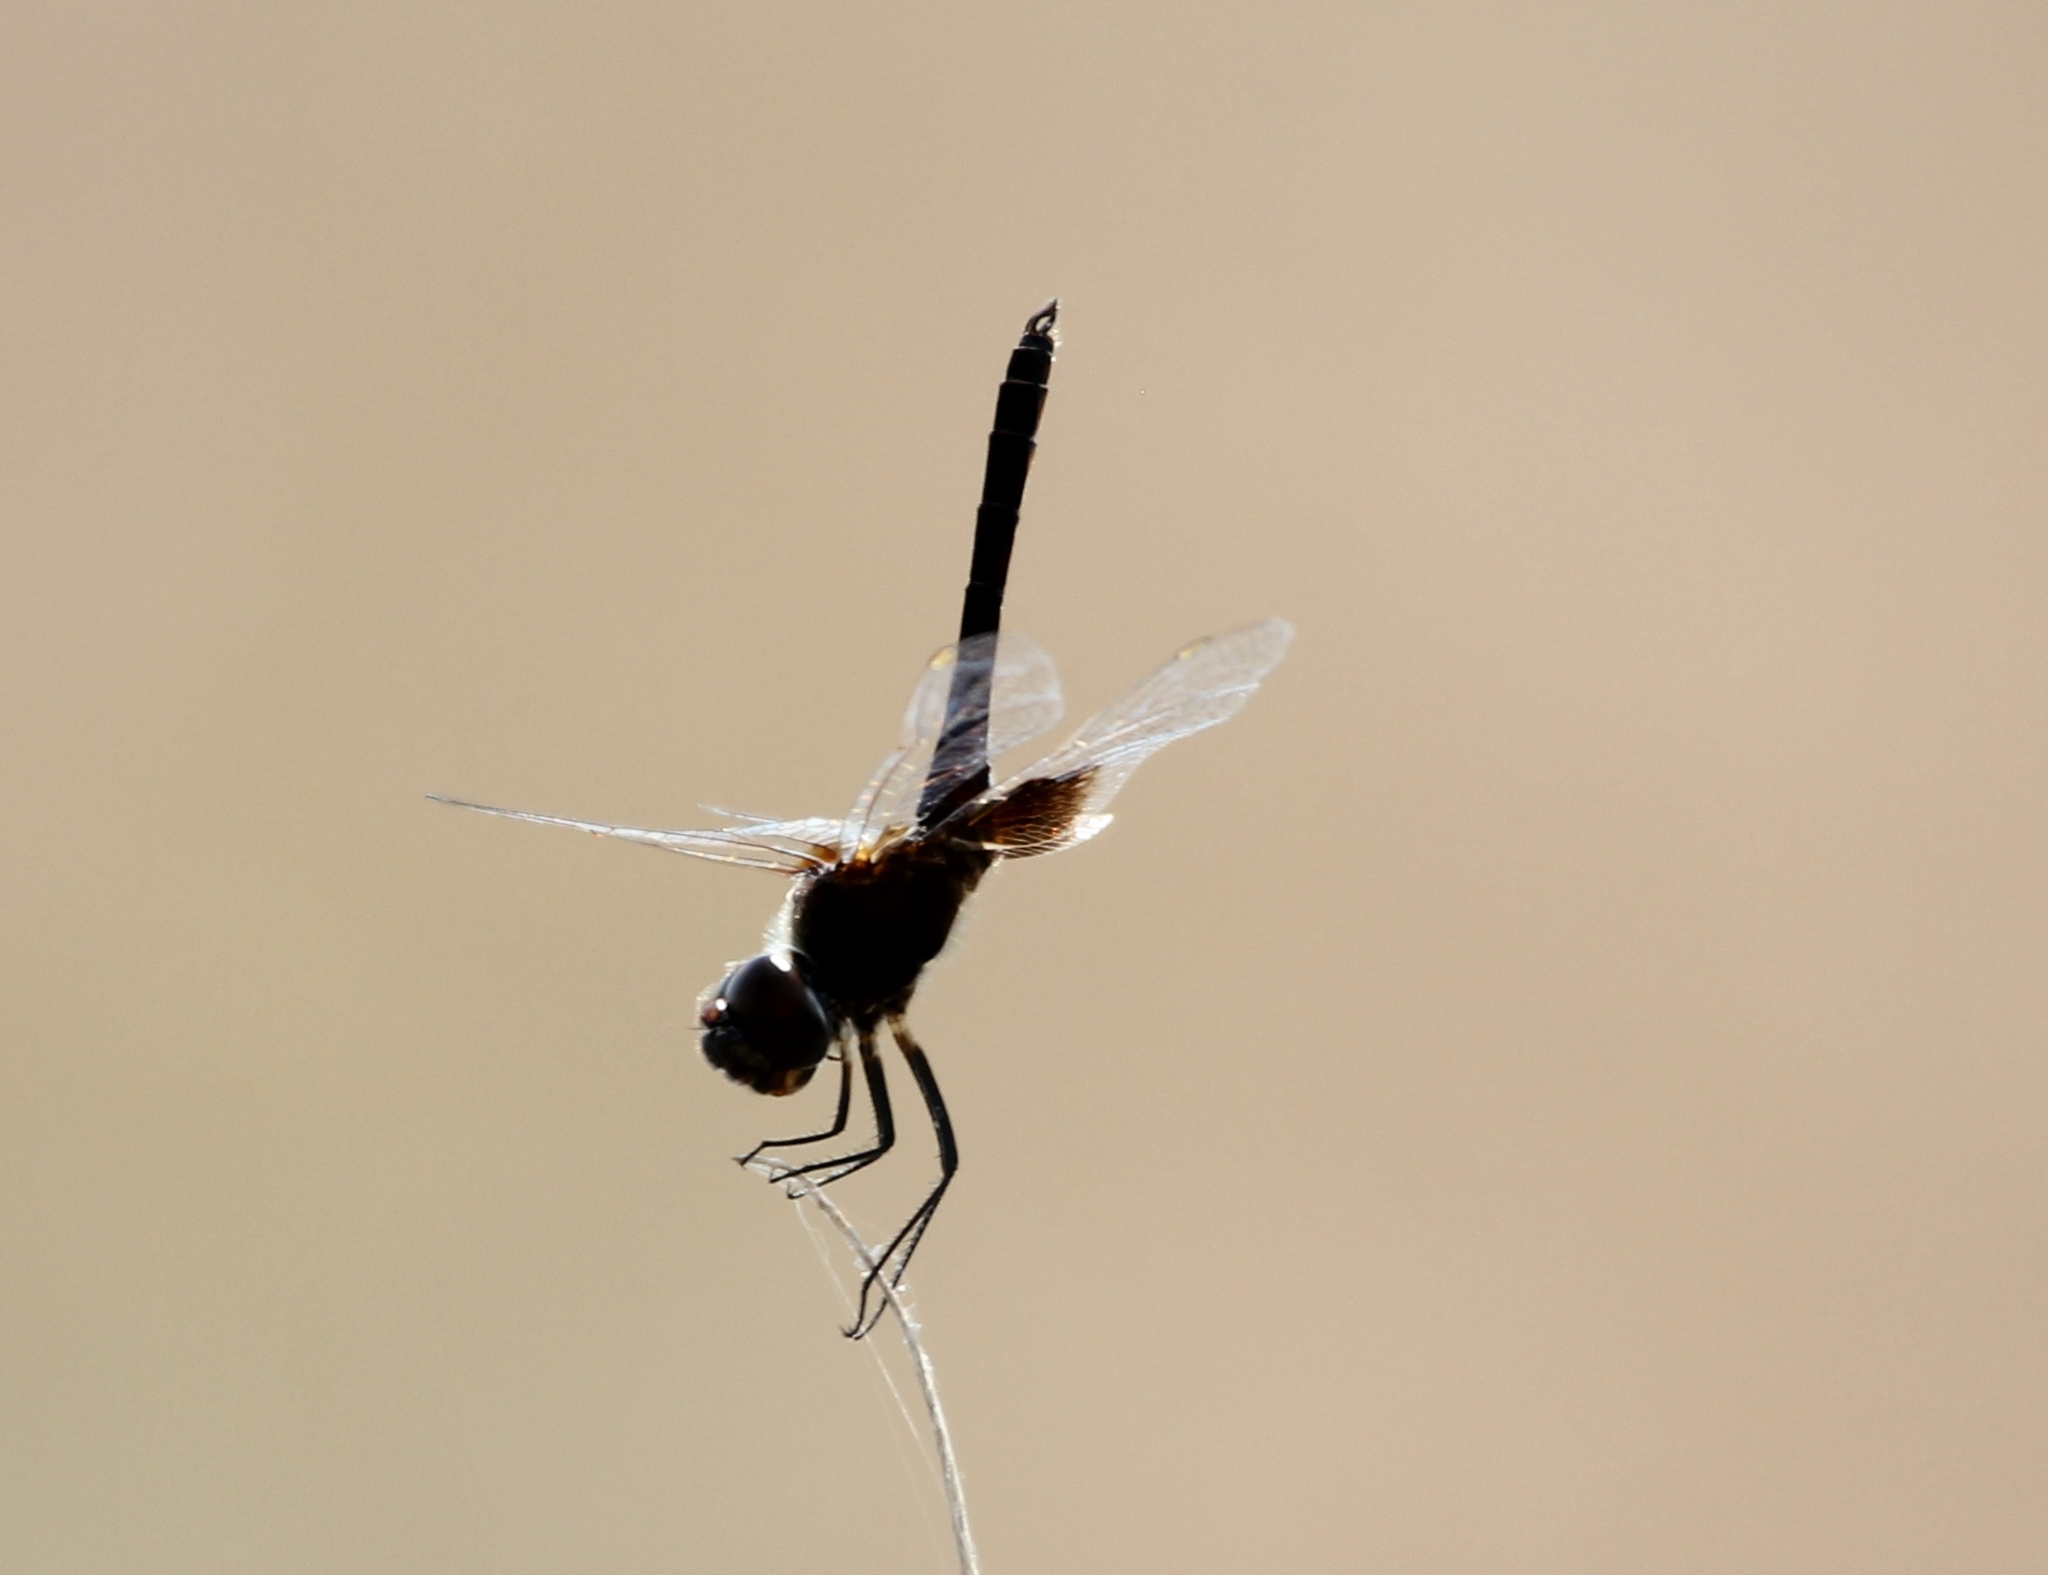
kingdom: Animalia
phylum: Arthropoda
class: Insecta
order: Odonata
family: Libellulidae
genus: Macrodiplax
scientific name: Macrodiplax balteata
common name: Marl pennant
